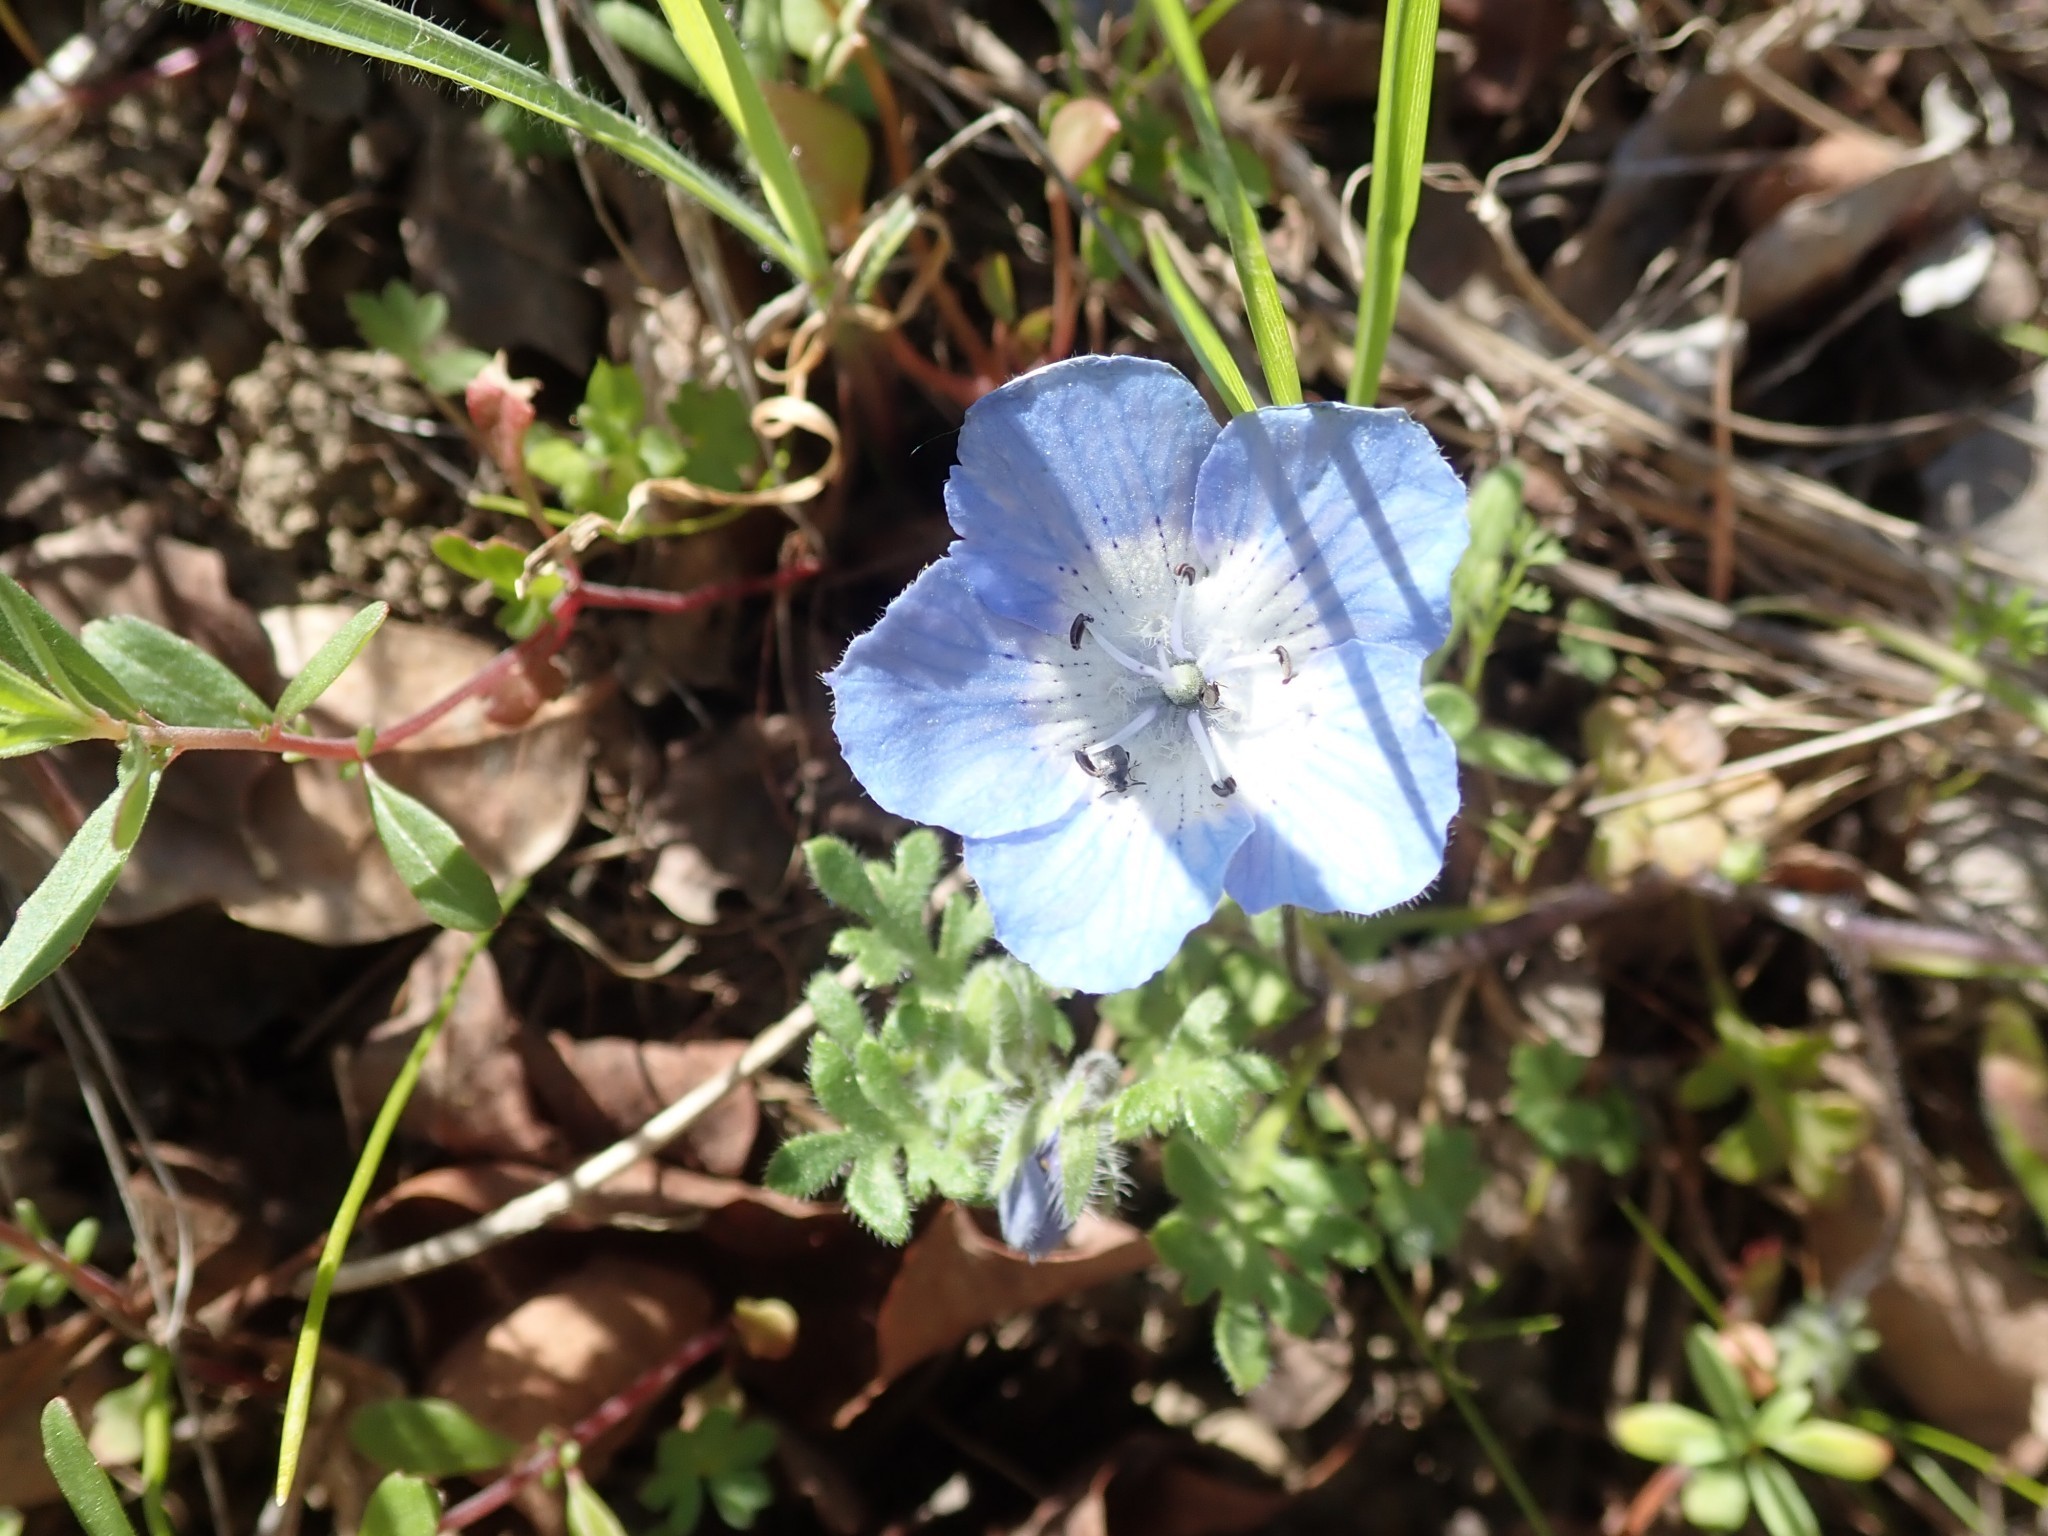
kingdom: Plantae
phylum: Tracheophyta
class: Magnoliopsida
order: Boraginales
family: Hydrophyllaceae
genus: Nemophila
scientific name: Nemophila menziesii
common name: Baby's-blue-eyes
